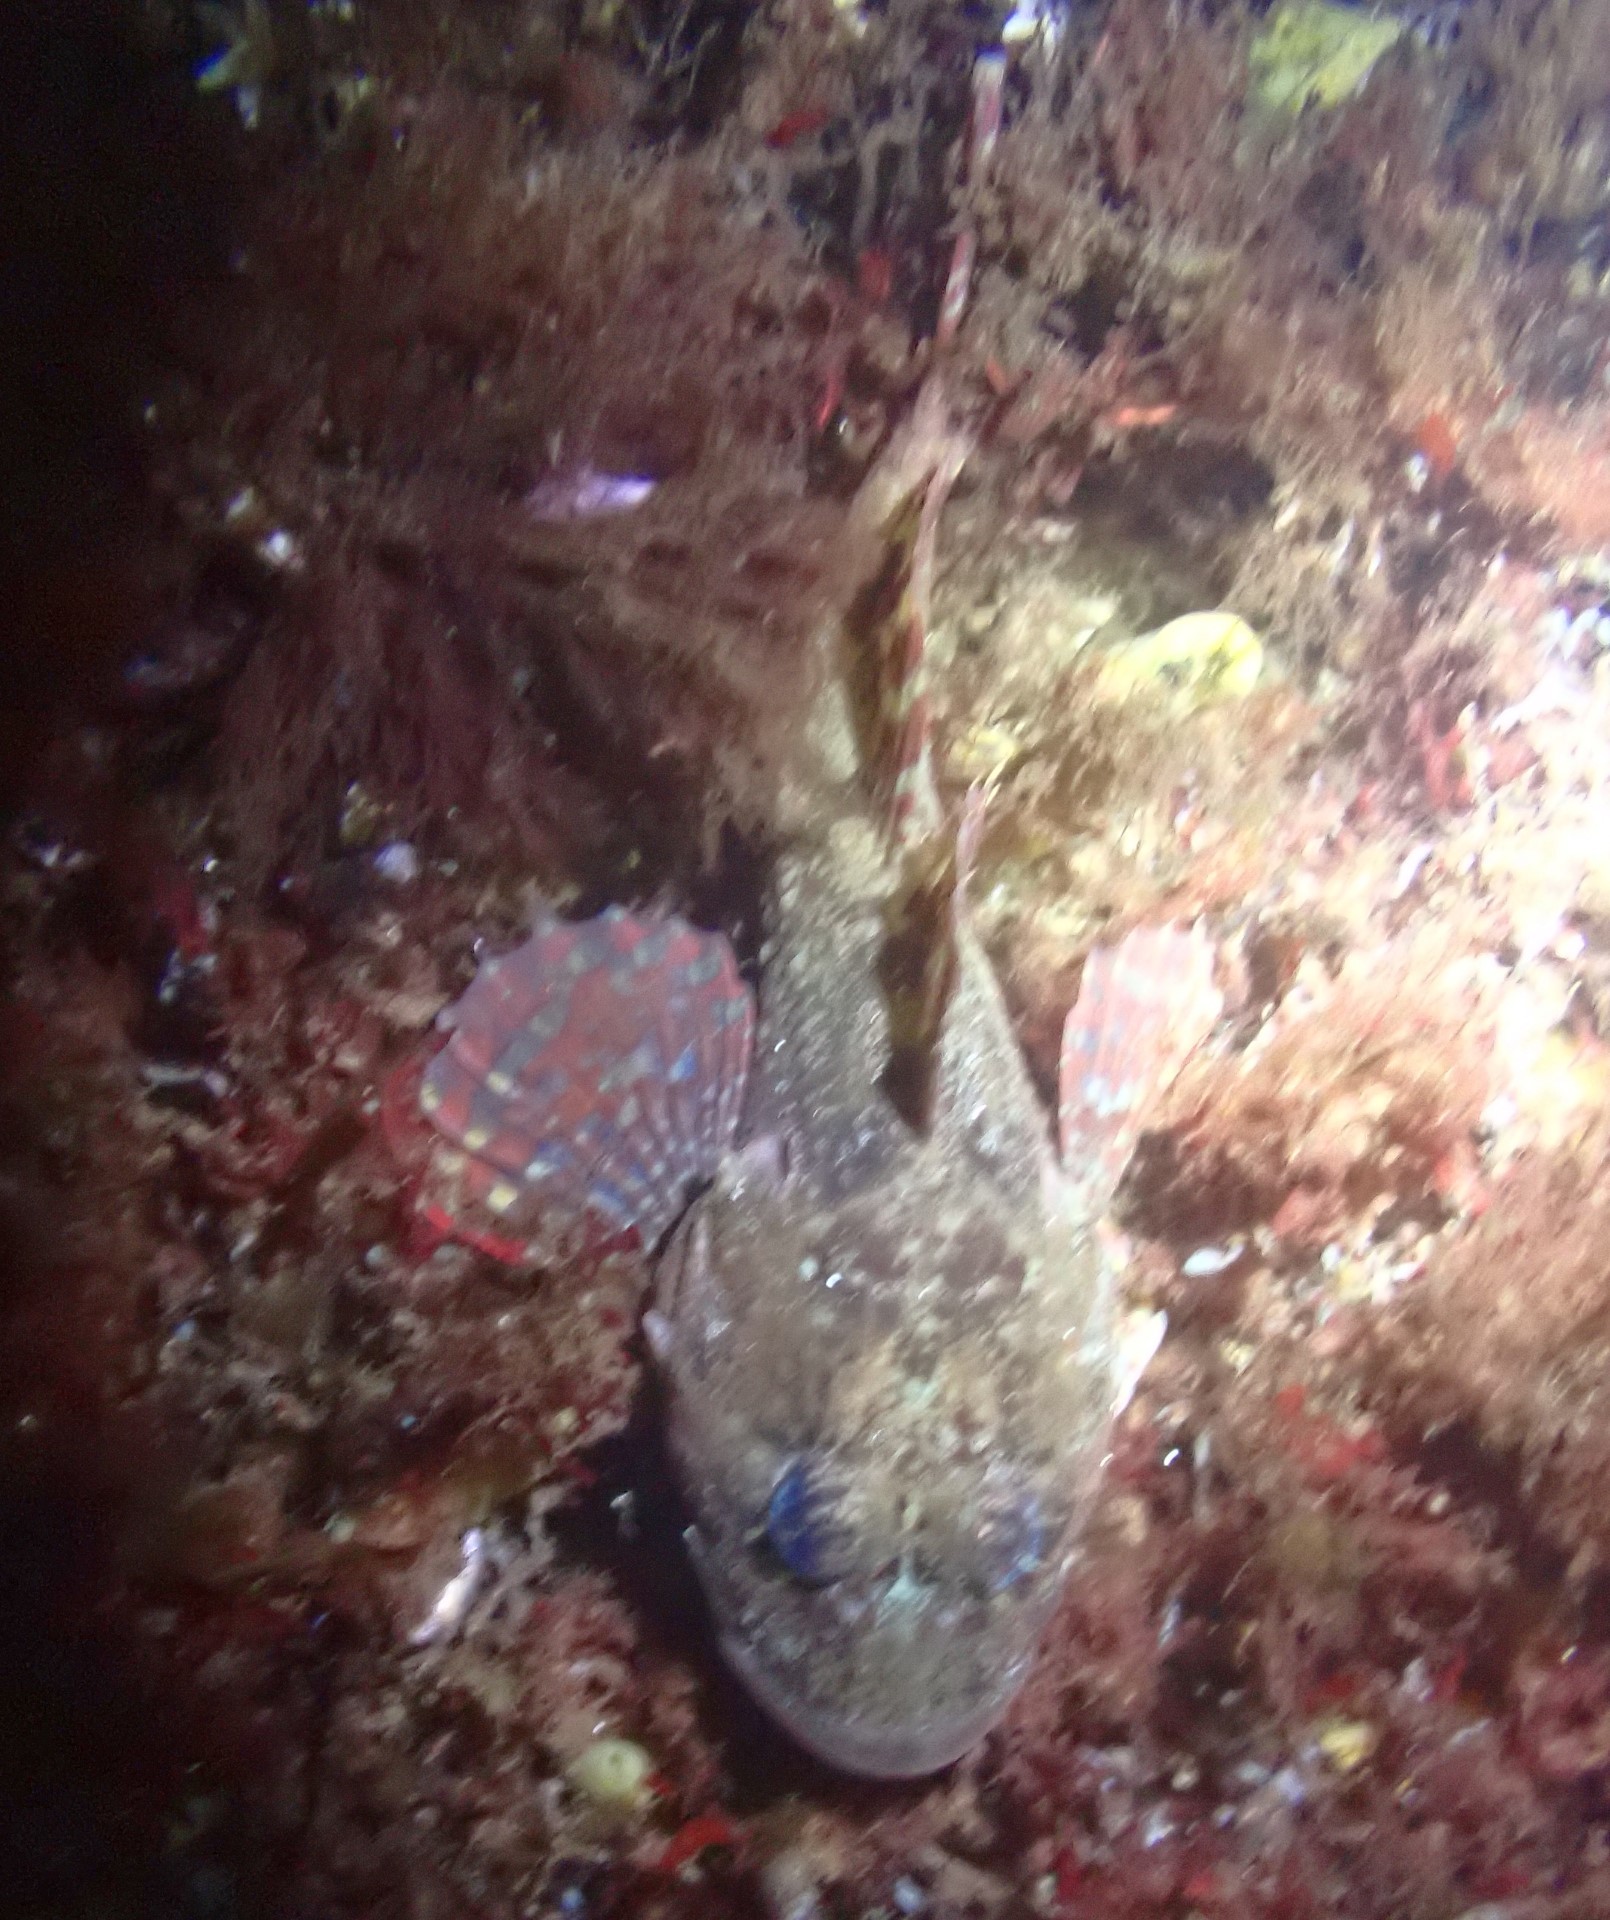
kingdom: Animalia
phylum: Chordata
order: Scorpaeniformes
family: Cottidae
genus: Myoxocephalus
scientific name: Myoxocephalus scorpius
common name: Shorthorn sculpin
